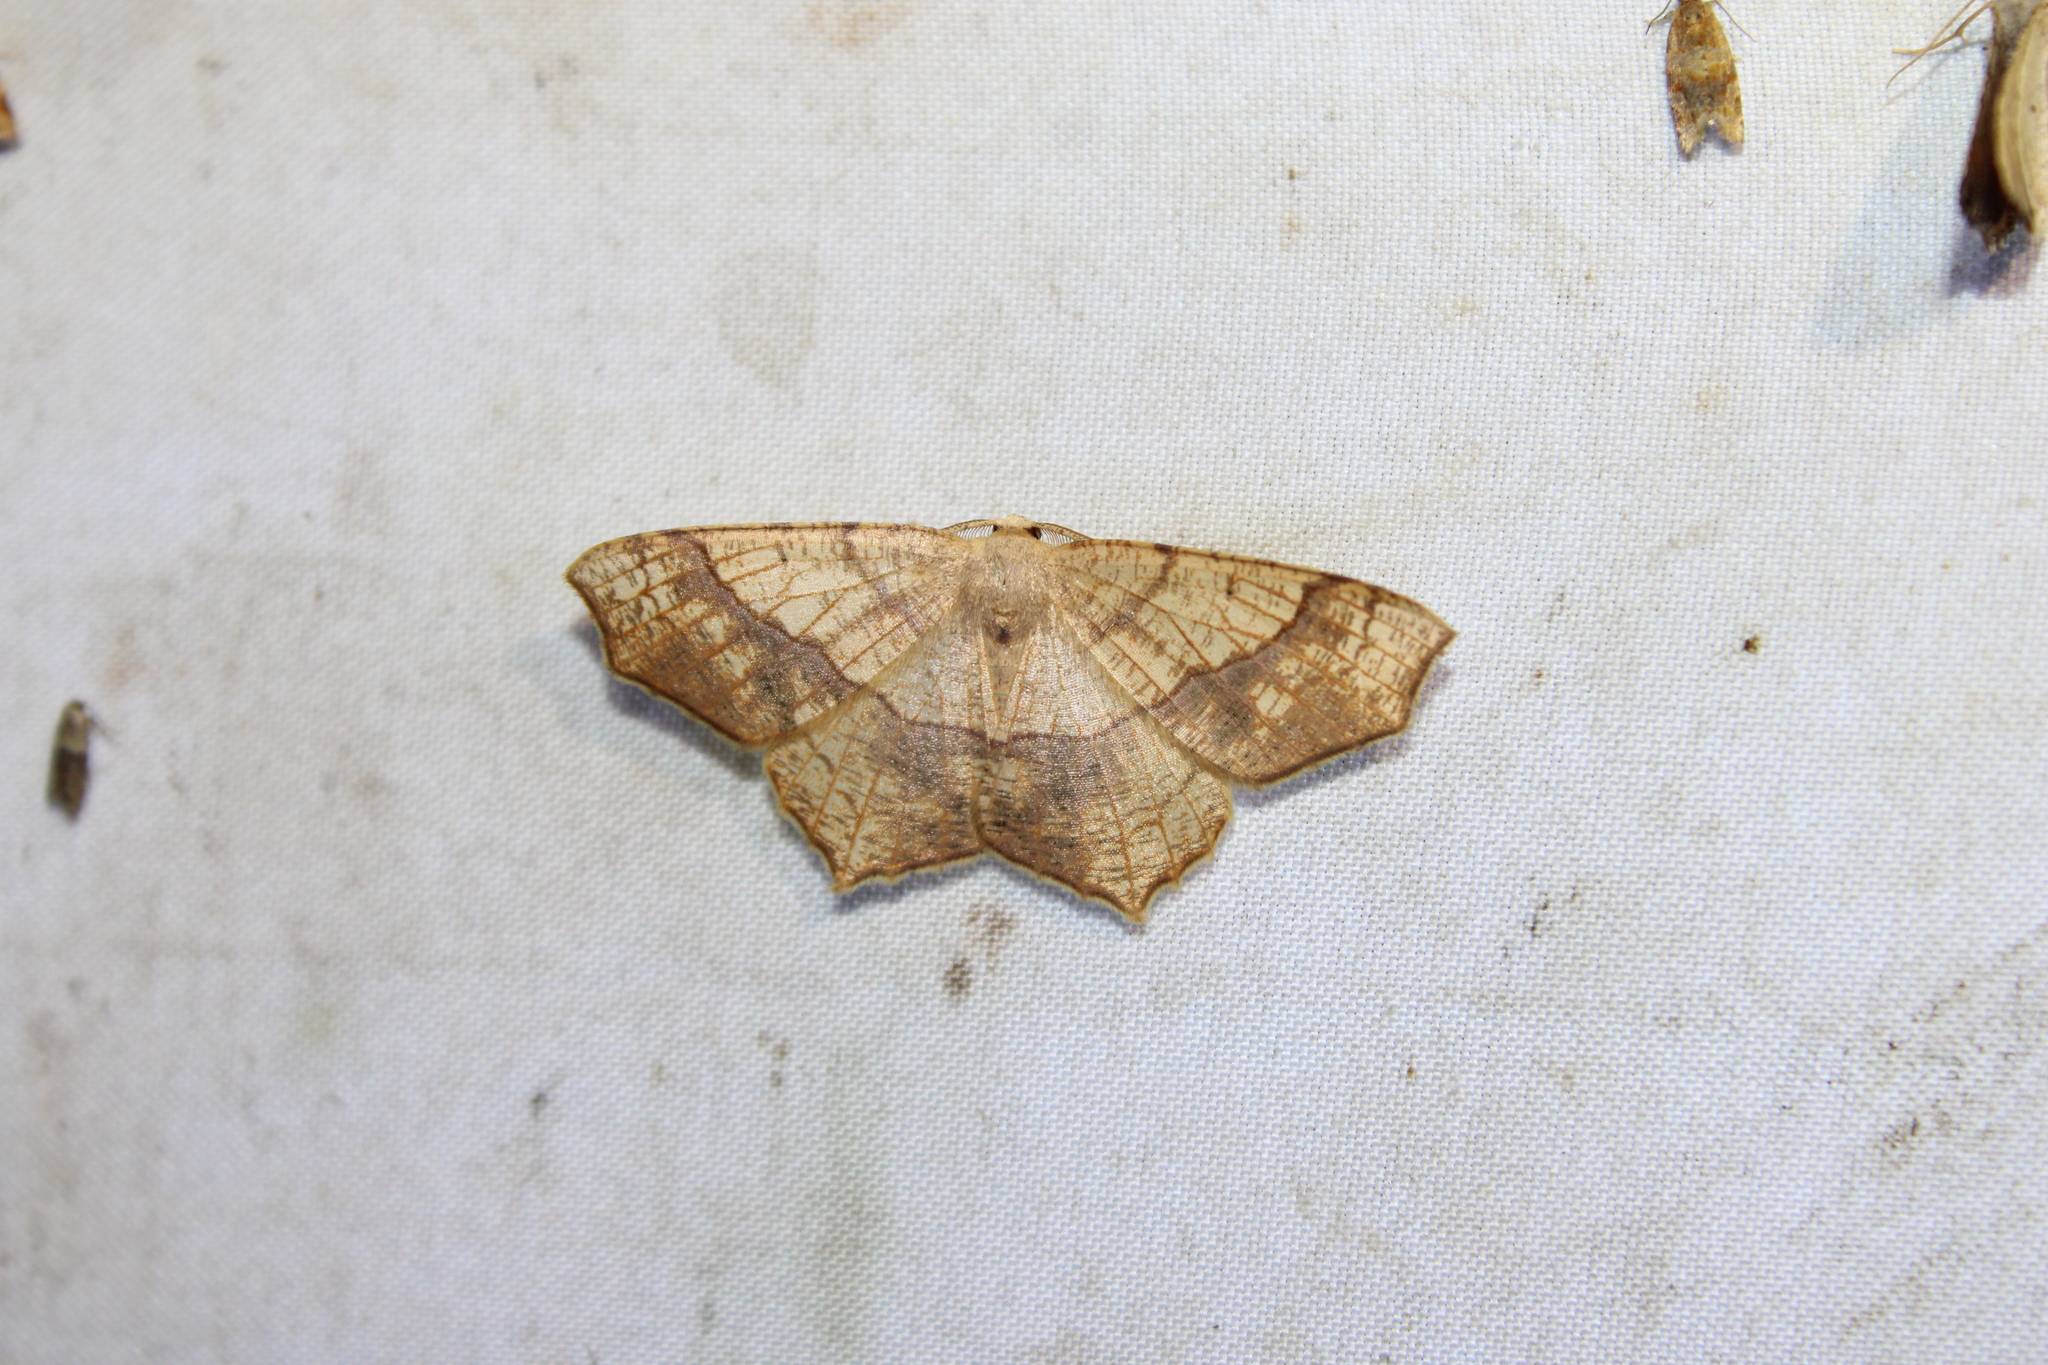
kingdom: Animalia
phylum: Arthropoda
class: Insecta
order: Lepidoptera
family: Geometridae
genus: Besma
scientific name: Besma quercivoraria
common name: Oak besma
